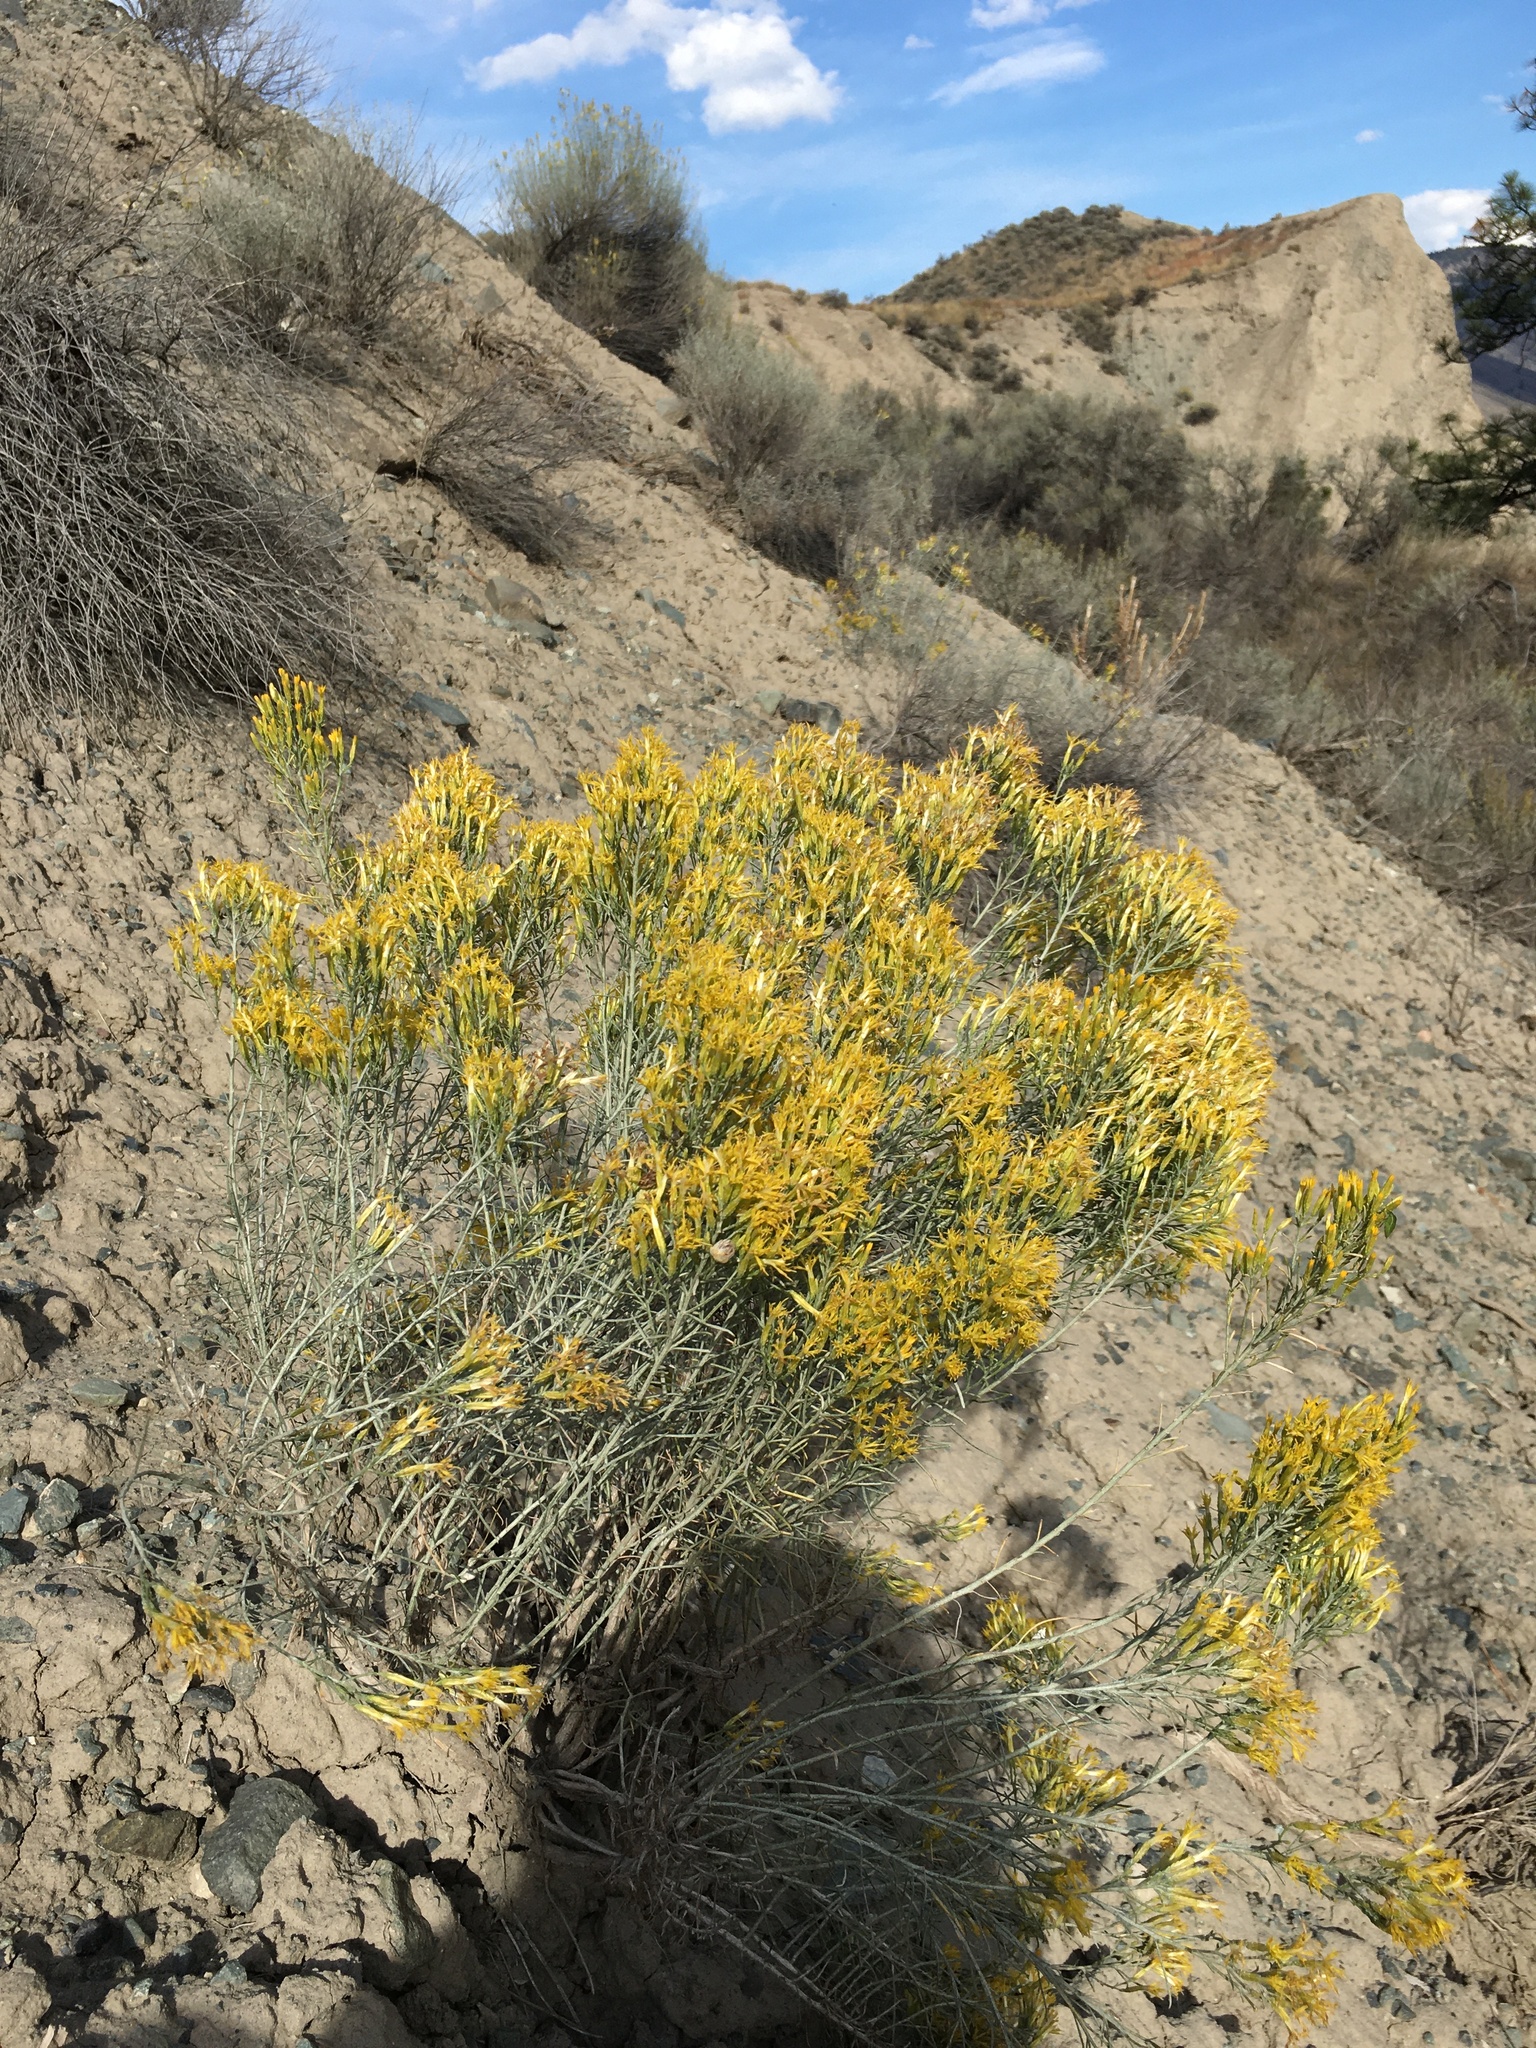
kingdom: Plantae
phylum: Tracheophyta
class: Magnoliopsida
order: Asterales
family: Asteraceae
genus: Ericameria
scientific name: Ericameria nauseosa
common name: Rubber rabbitbrush
